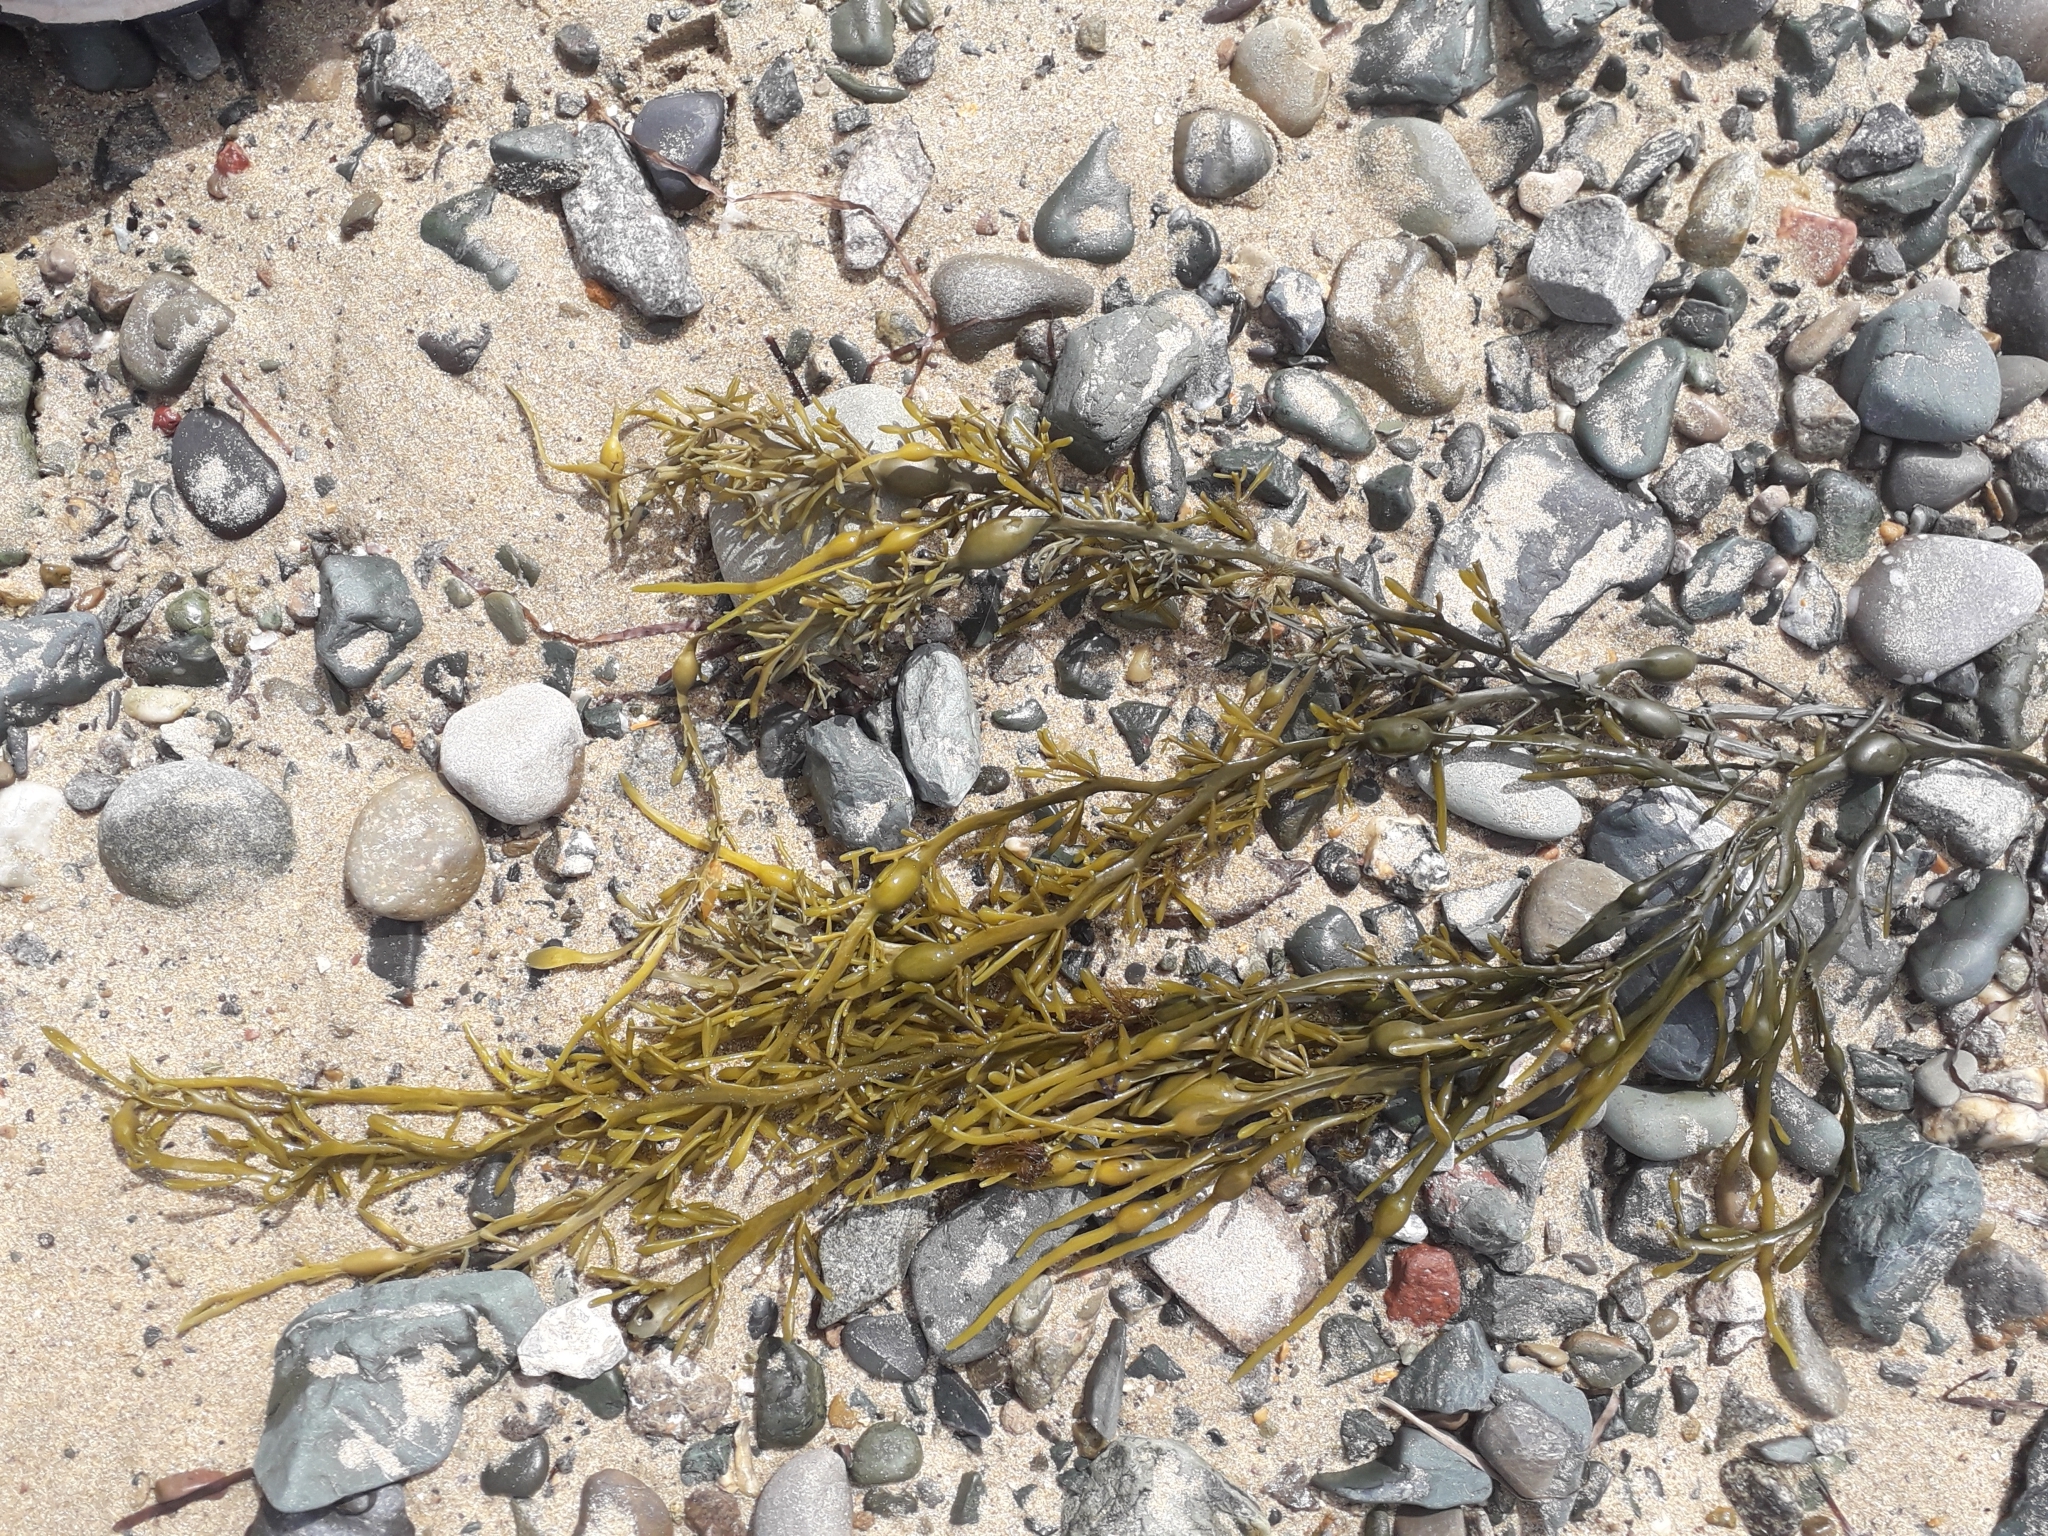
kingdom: Chromista
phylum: Ochrophyta
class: Phaeophyceae
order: Fucales
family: Fucaceae
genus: Ascophyllum
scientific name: Ascophyllum nodosum
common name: Knotted wrack
